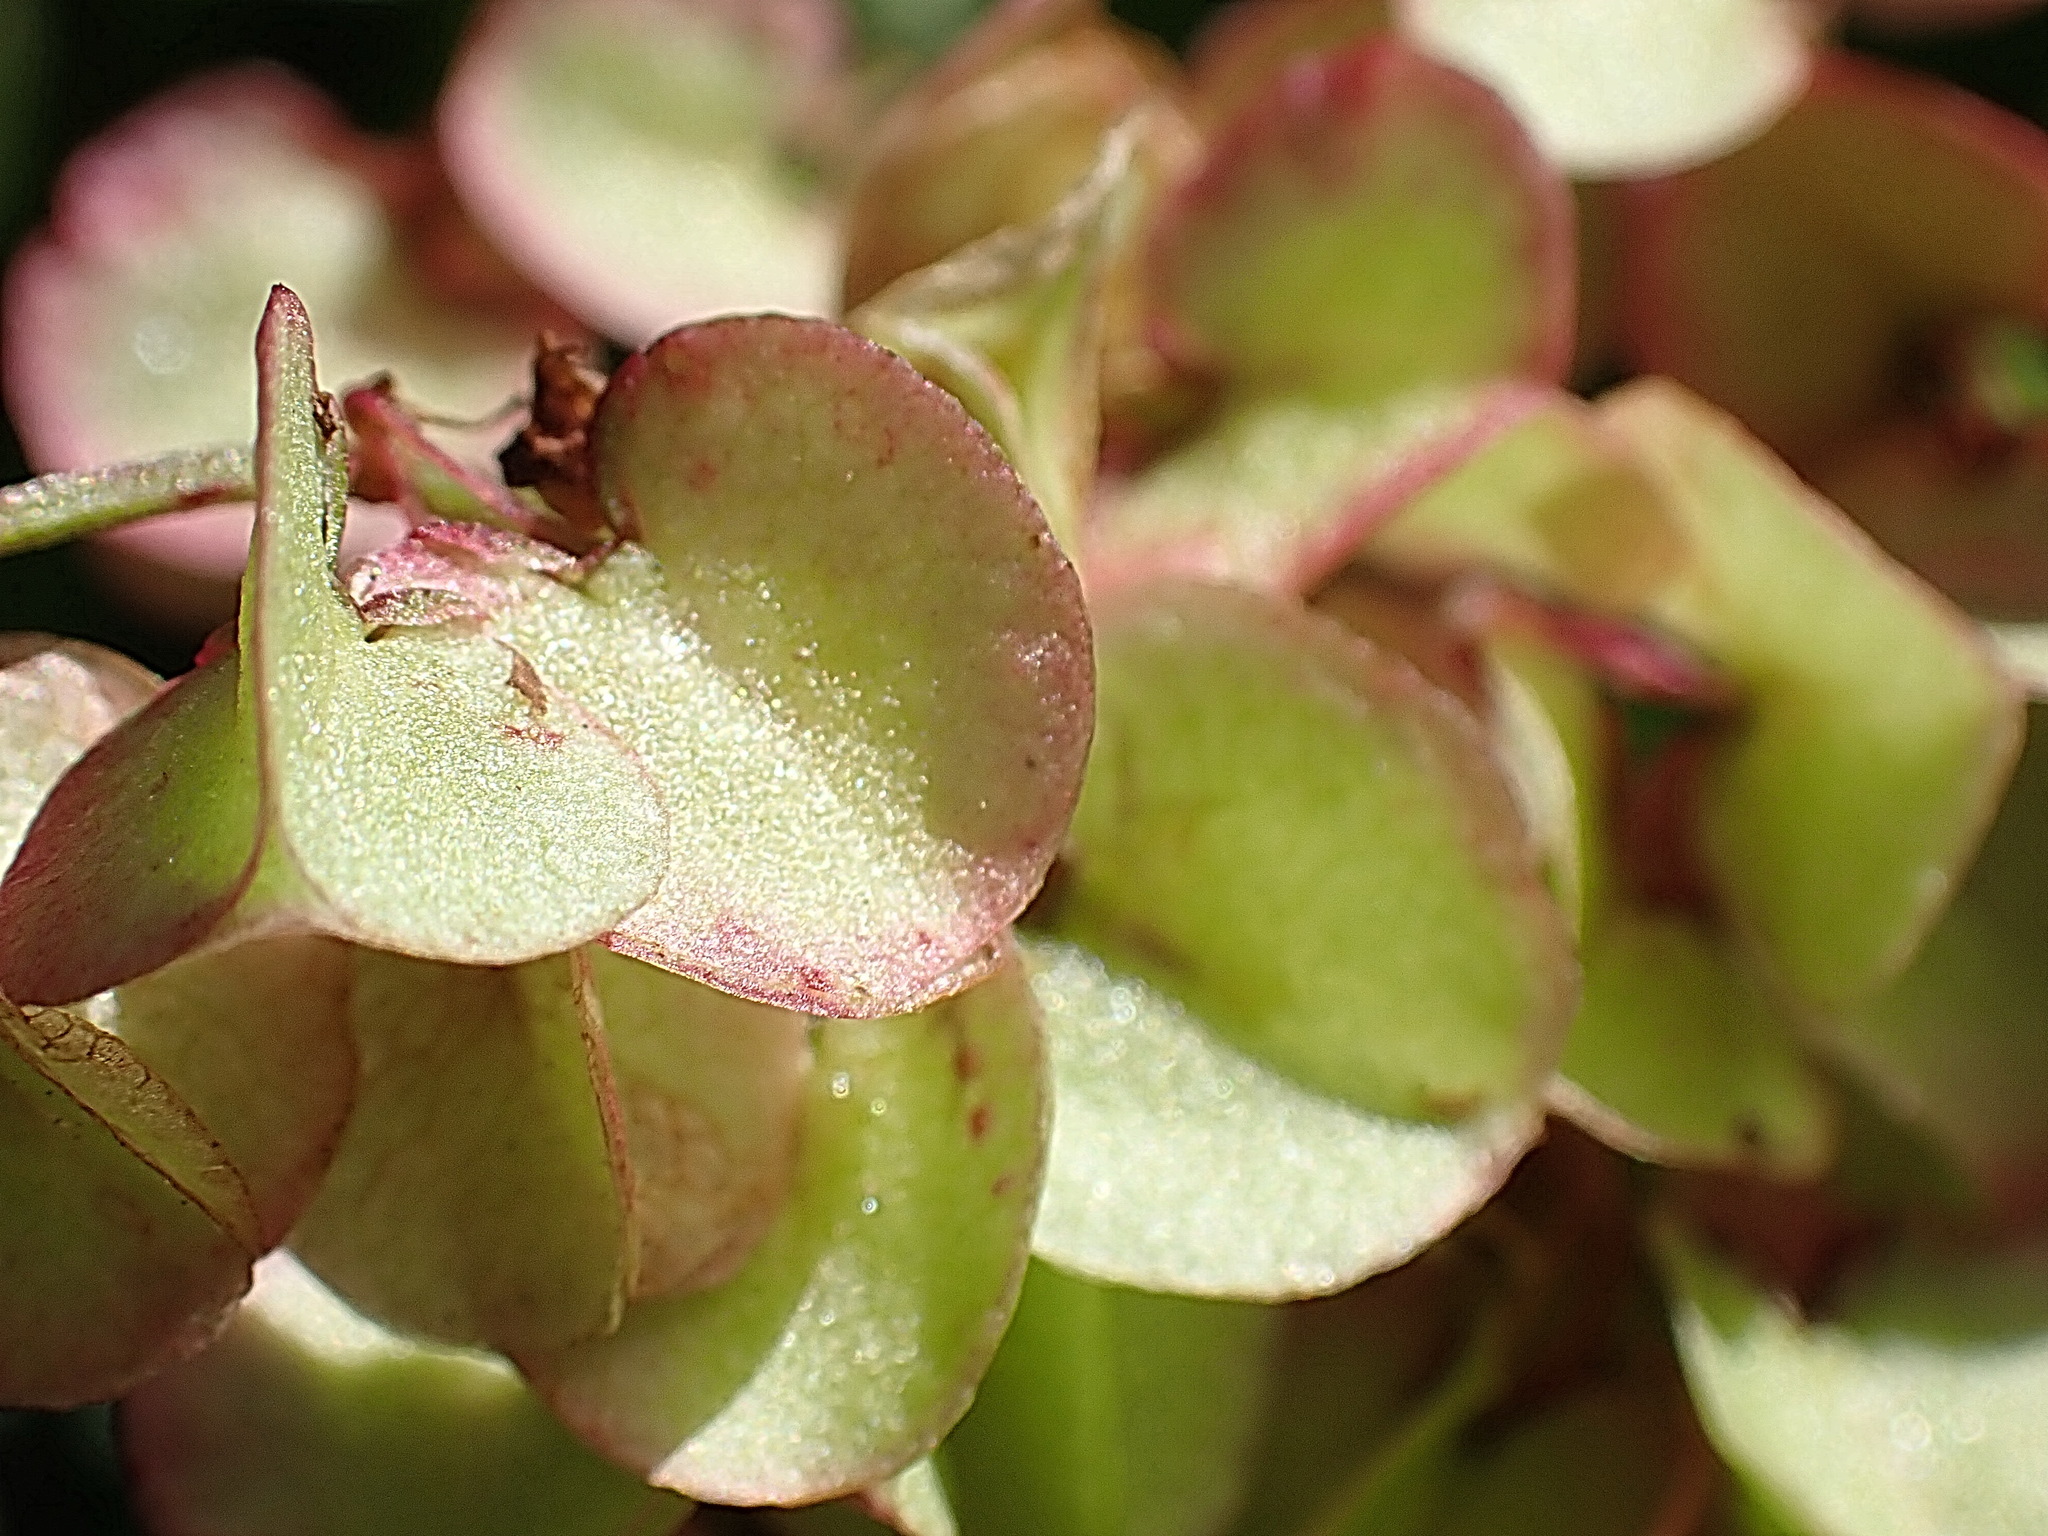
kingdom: Plantae
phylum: Tracheophyta
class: Magnoliopsida
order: Caryophyllales
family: Polygonaceae
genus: Rumex
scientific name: Rumex sagittatus
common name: Climbing dock
